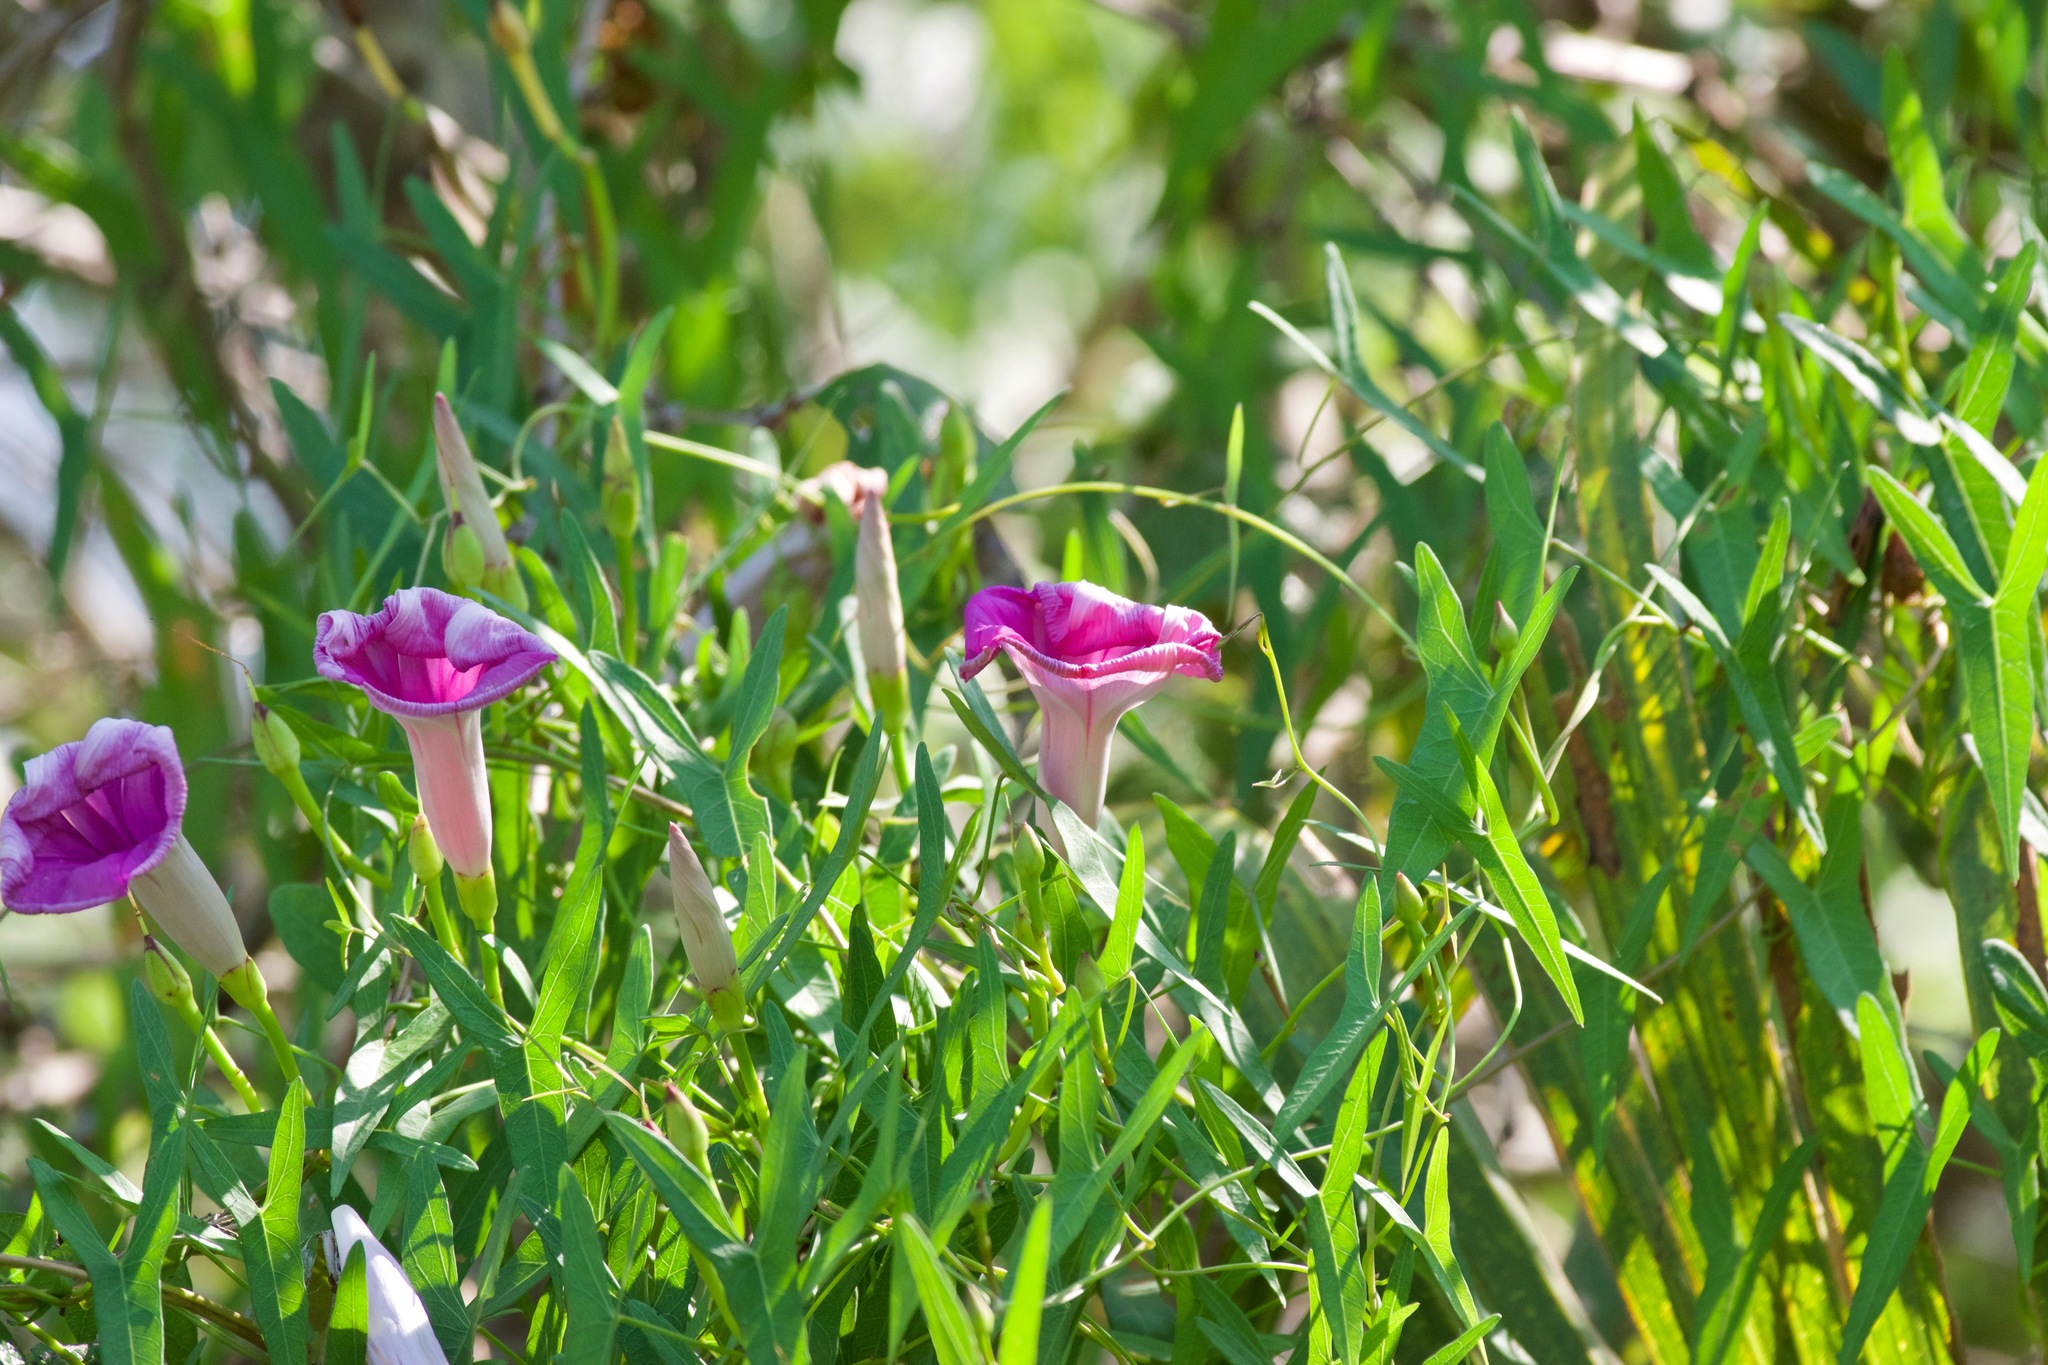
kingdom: Plantae
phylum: Tracheophyta
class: Magnoliopsida
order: Solanales
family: Convolvulaceae
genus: Ipomoea
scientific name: Ipomoea sagittata
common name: Saltmarsh morning glory
